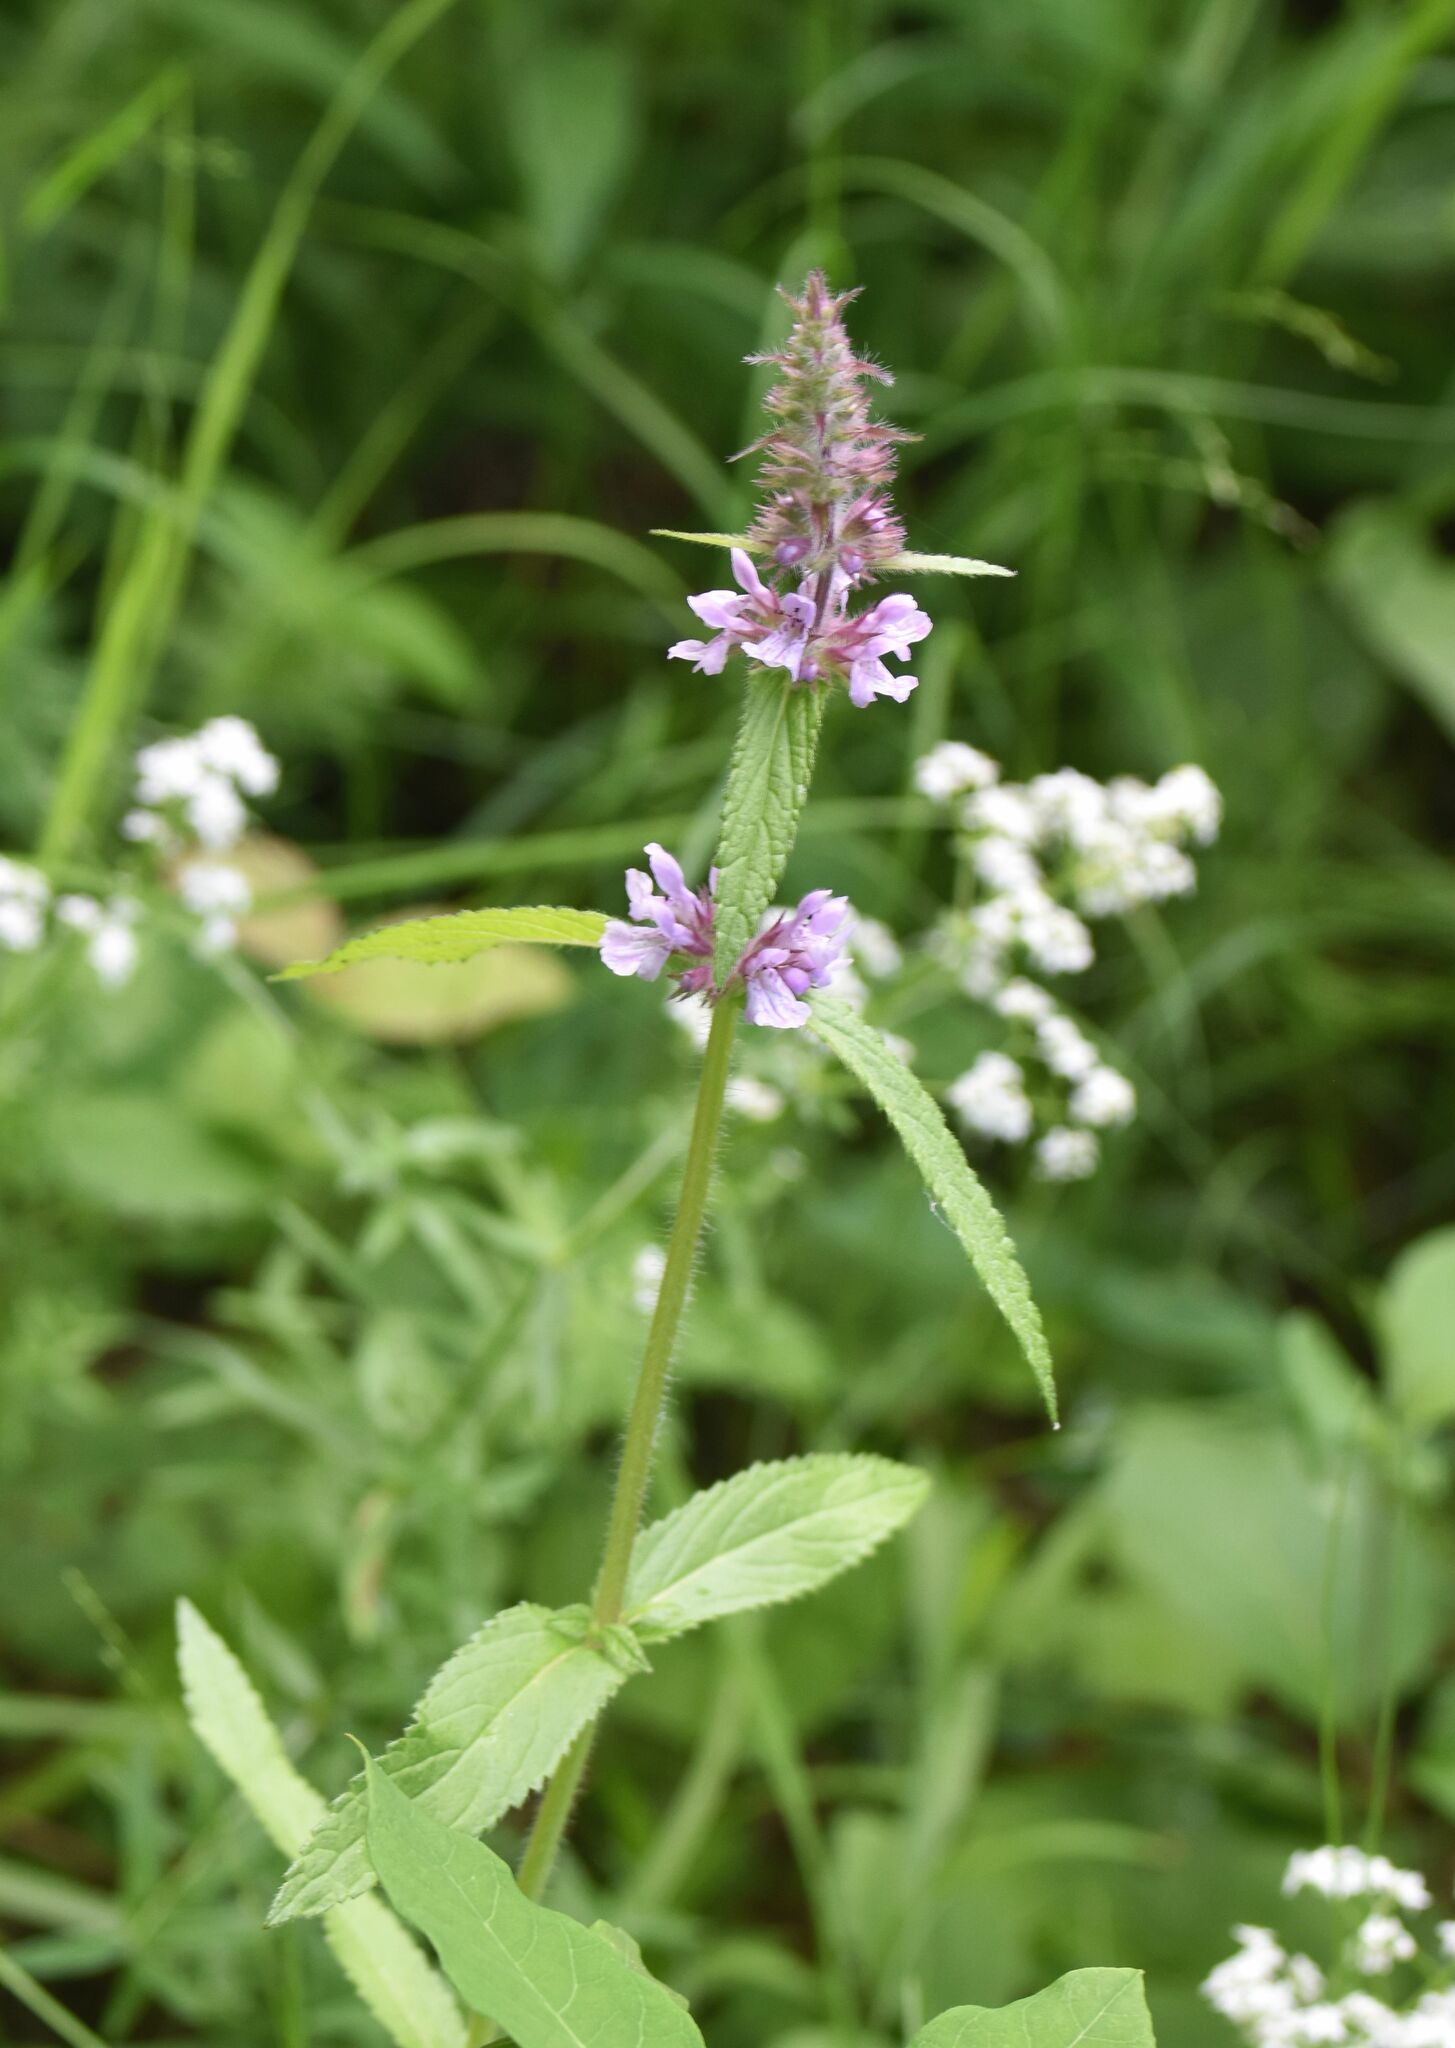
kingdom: Plantae
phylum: Tracheophyta
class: Magnoliopsida
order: Lamiales
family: Lamiaceae
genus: Stachys
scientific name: Stachys pilosa
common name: Hairy hedge-nettle
